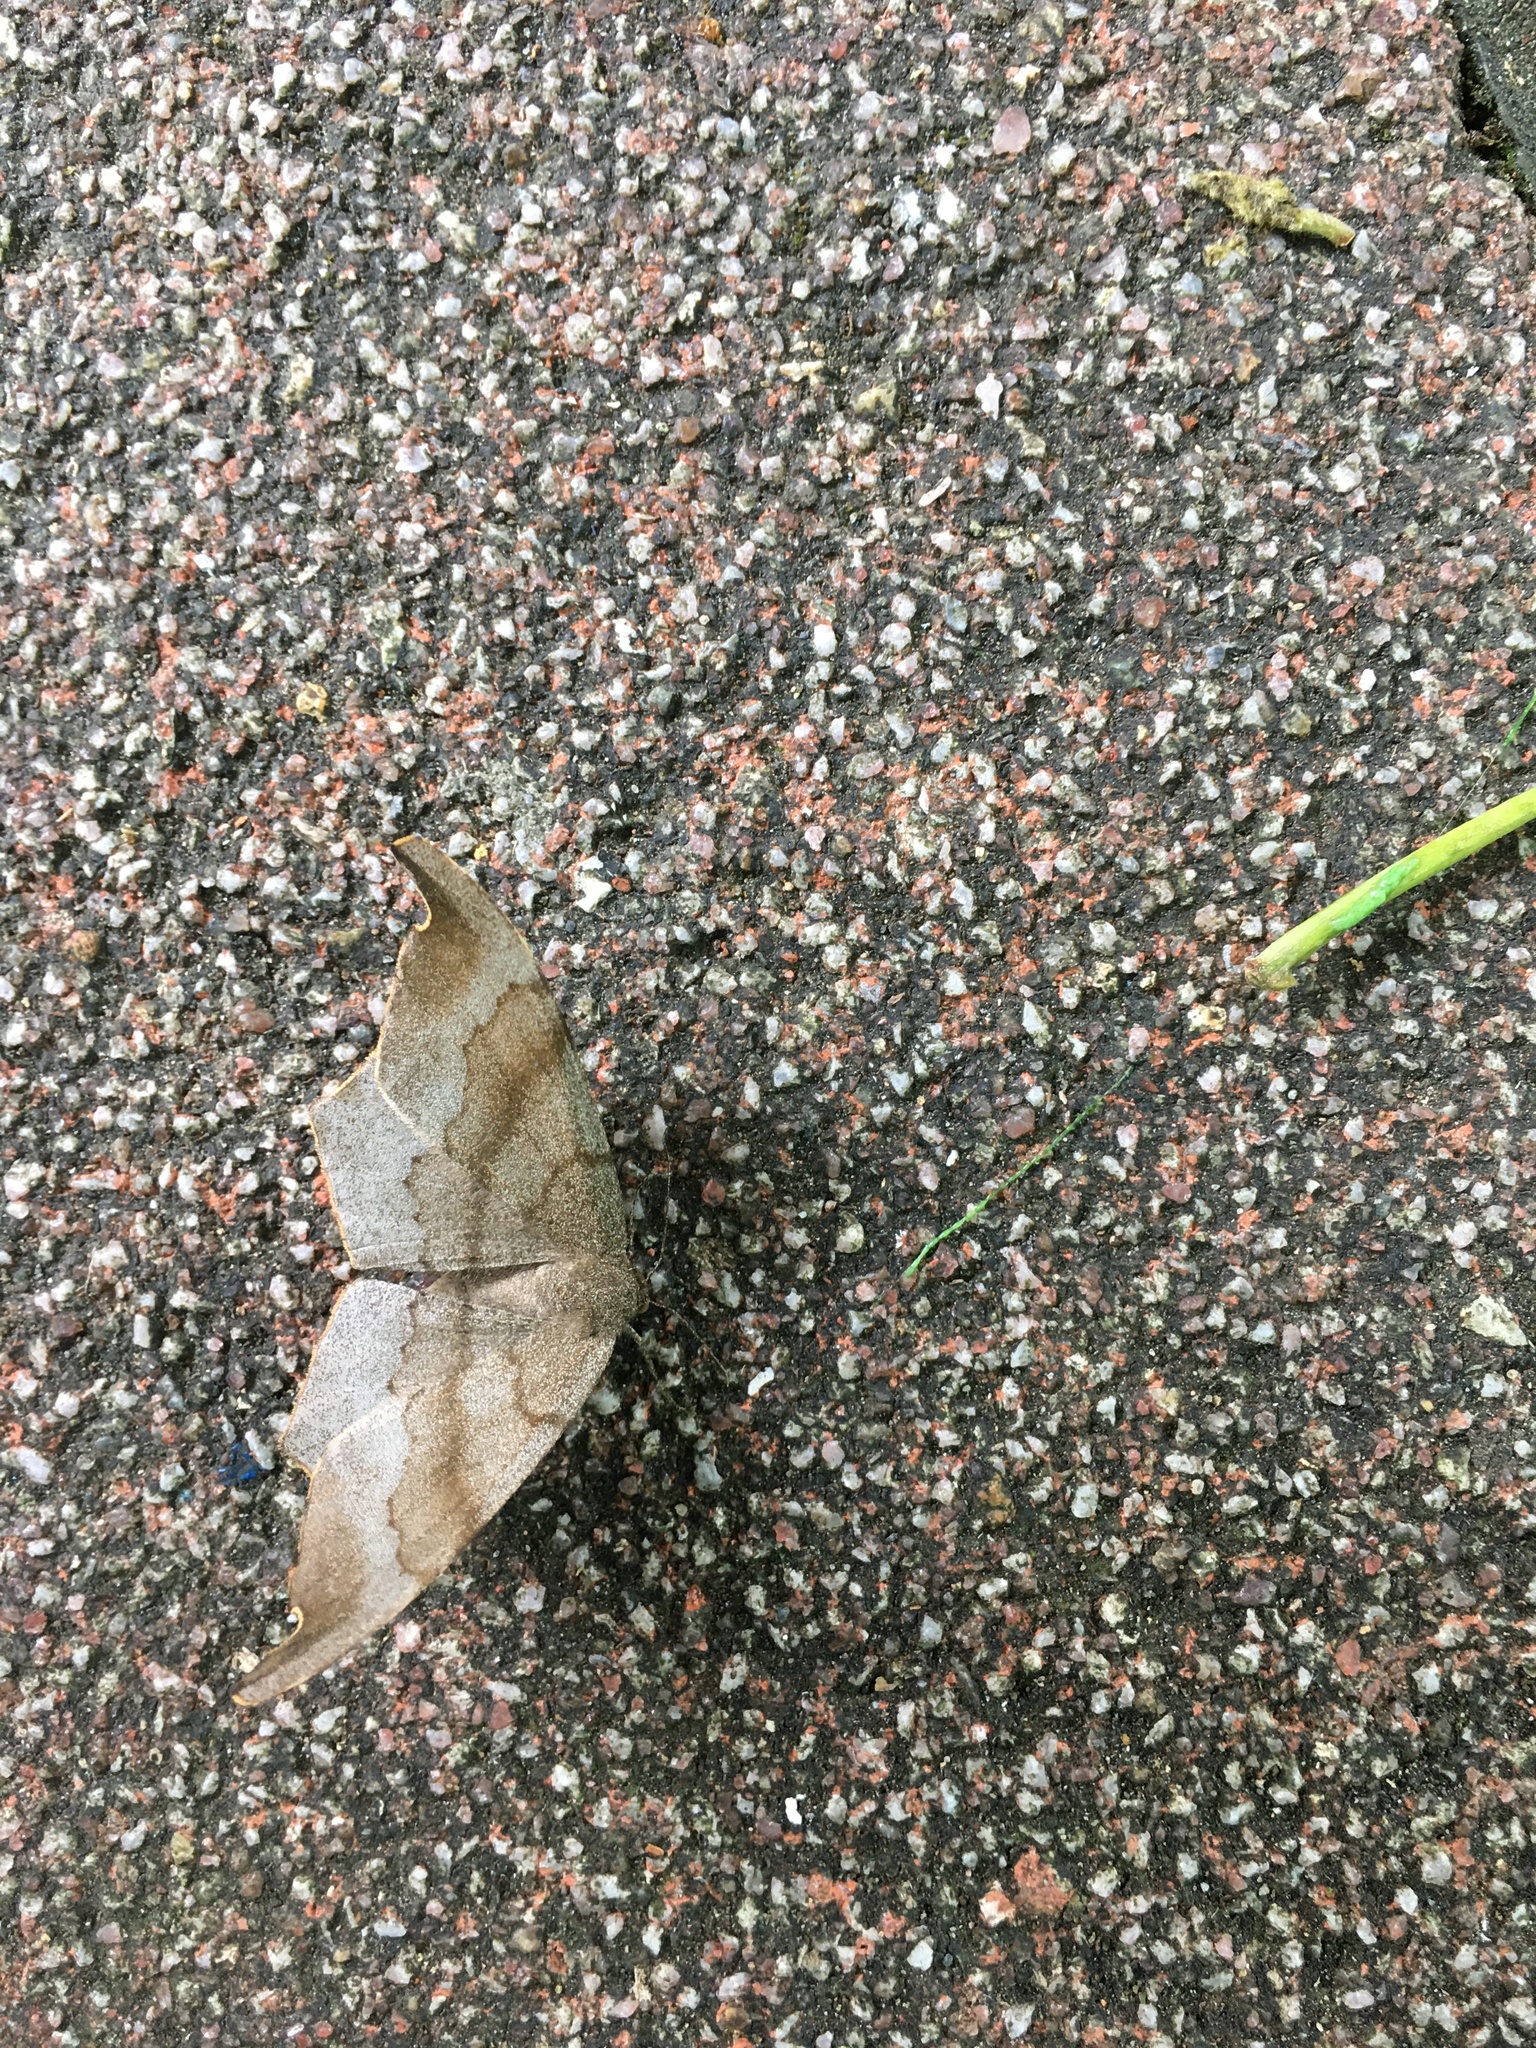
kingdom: Animalia
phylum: Arthropoda
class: Insecta
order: Lepidoptera
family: Geometridae
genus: Hyposidra
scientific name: Hyposidra talaca
